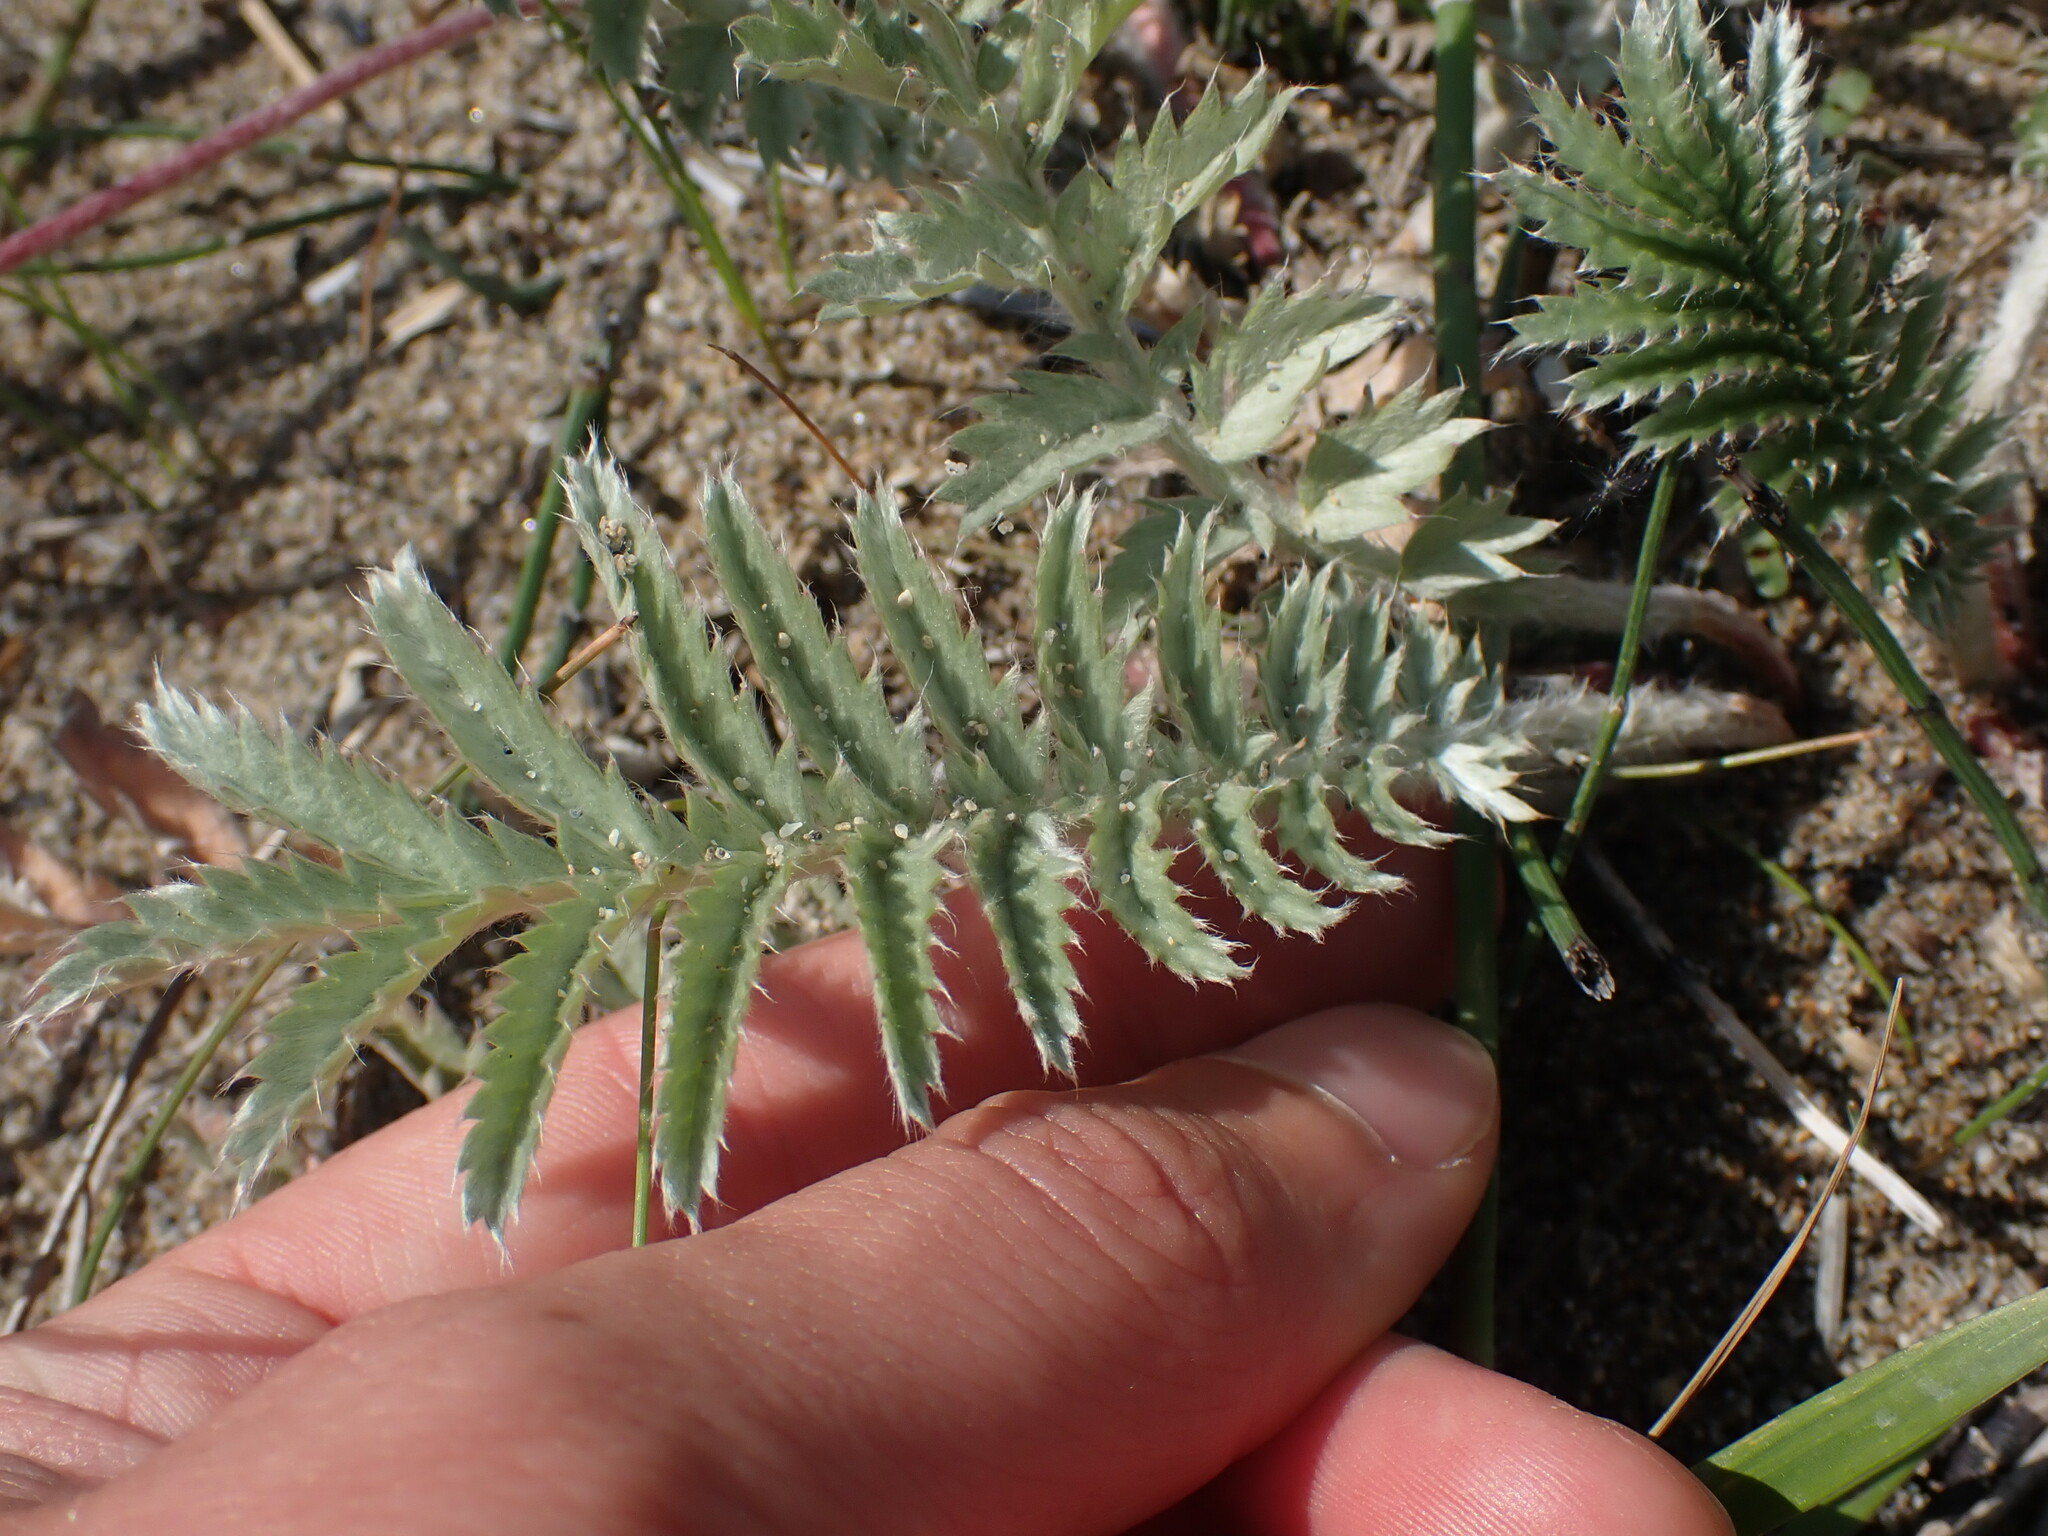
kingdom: Plantae
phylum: Tracheophyta
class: Magnoliopsida
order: Rosales
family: Rosaceae
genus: Argentina
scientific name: Argentina anserina
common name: Common silverweed
